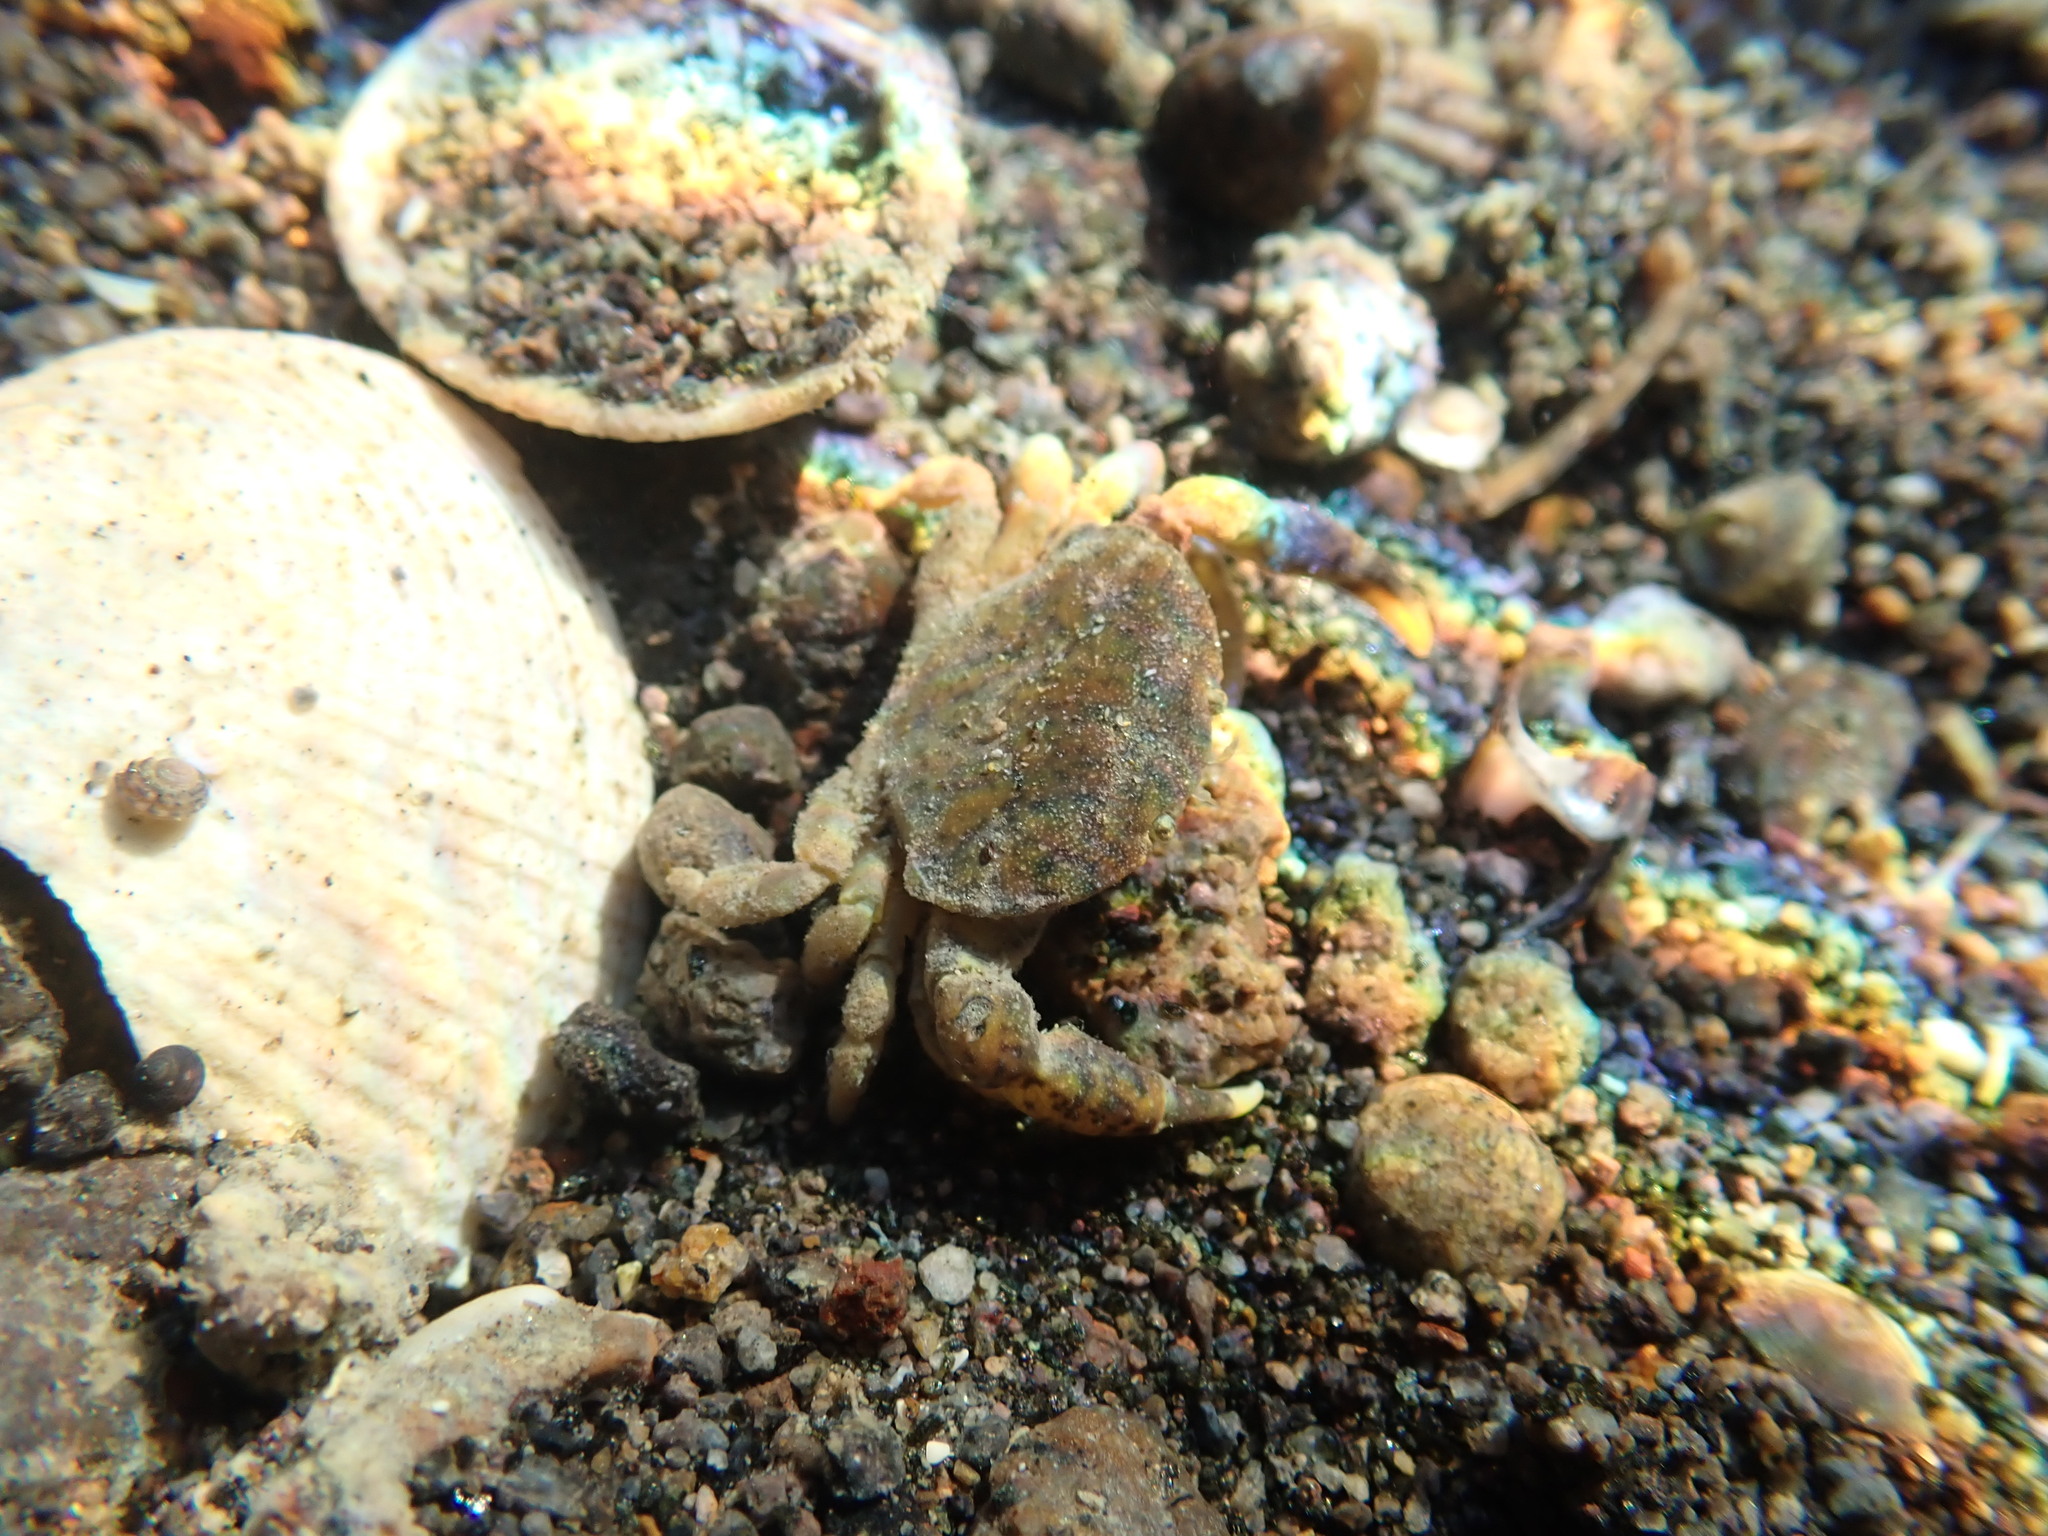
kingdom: Animalia
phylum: Arthropoda
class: Malacostraca
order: Decapoda
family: Heteroziidae
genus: Heterozius
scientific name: Heterozius rotundifrons
